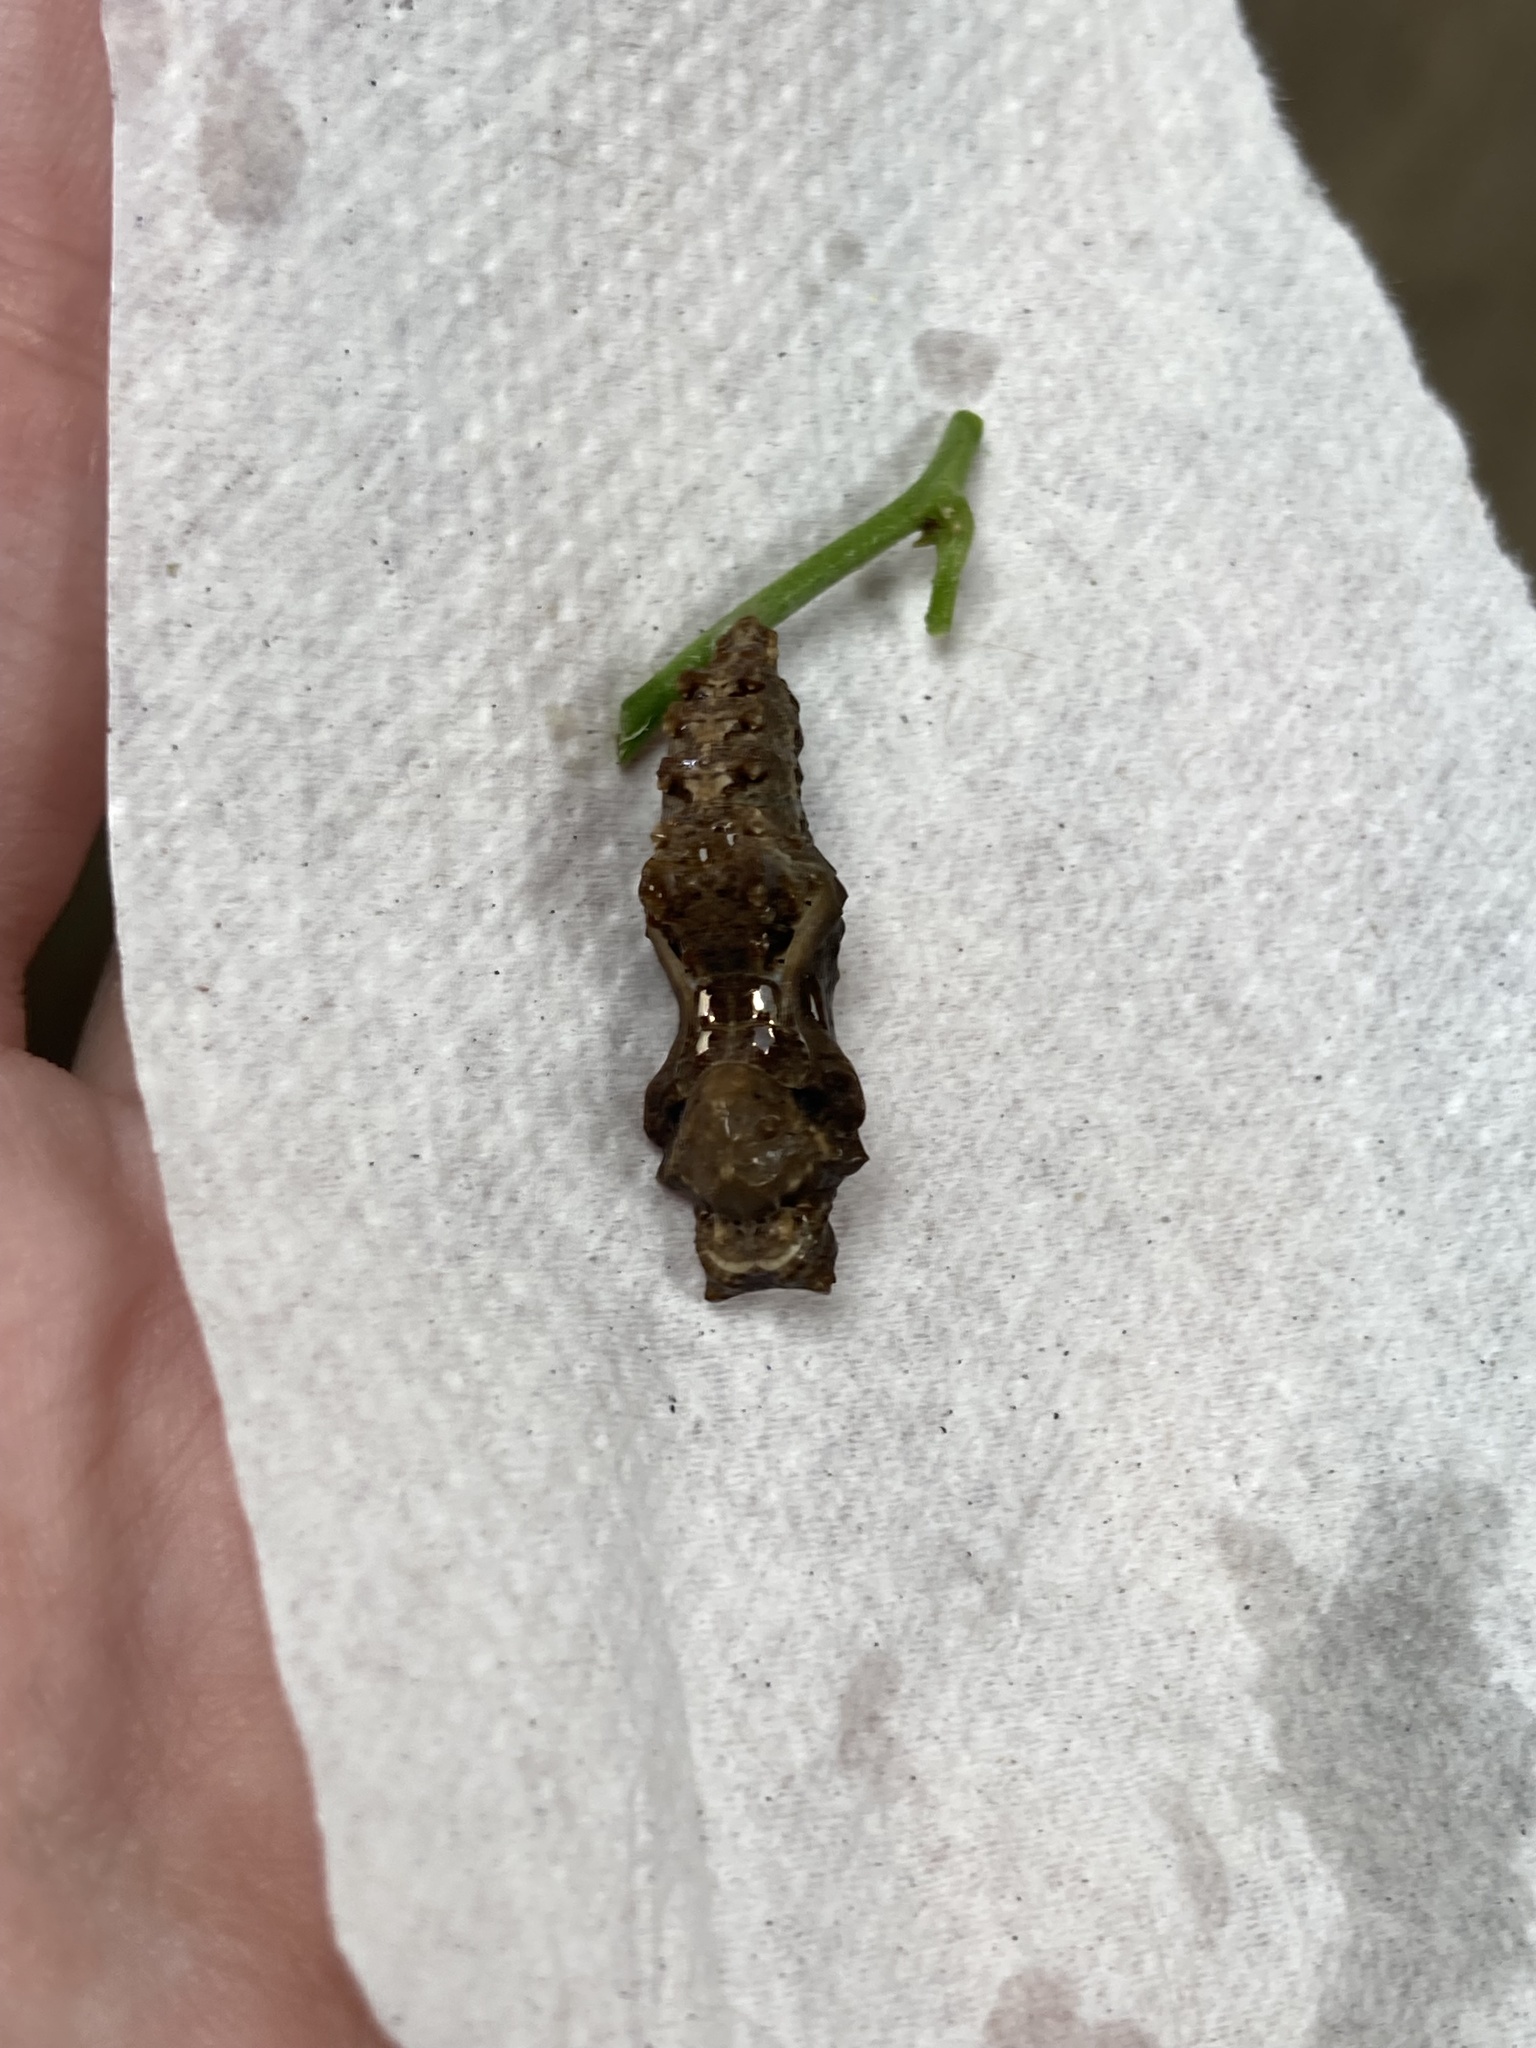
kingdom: Animalia
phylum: Arthropoda
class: Insecta
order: Lepidoptera
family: Nymphalidae
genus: Dryas
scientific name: Dryas iulia
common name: Flambeau
